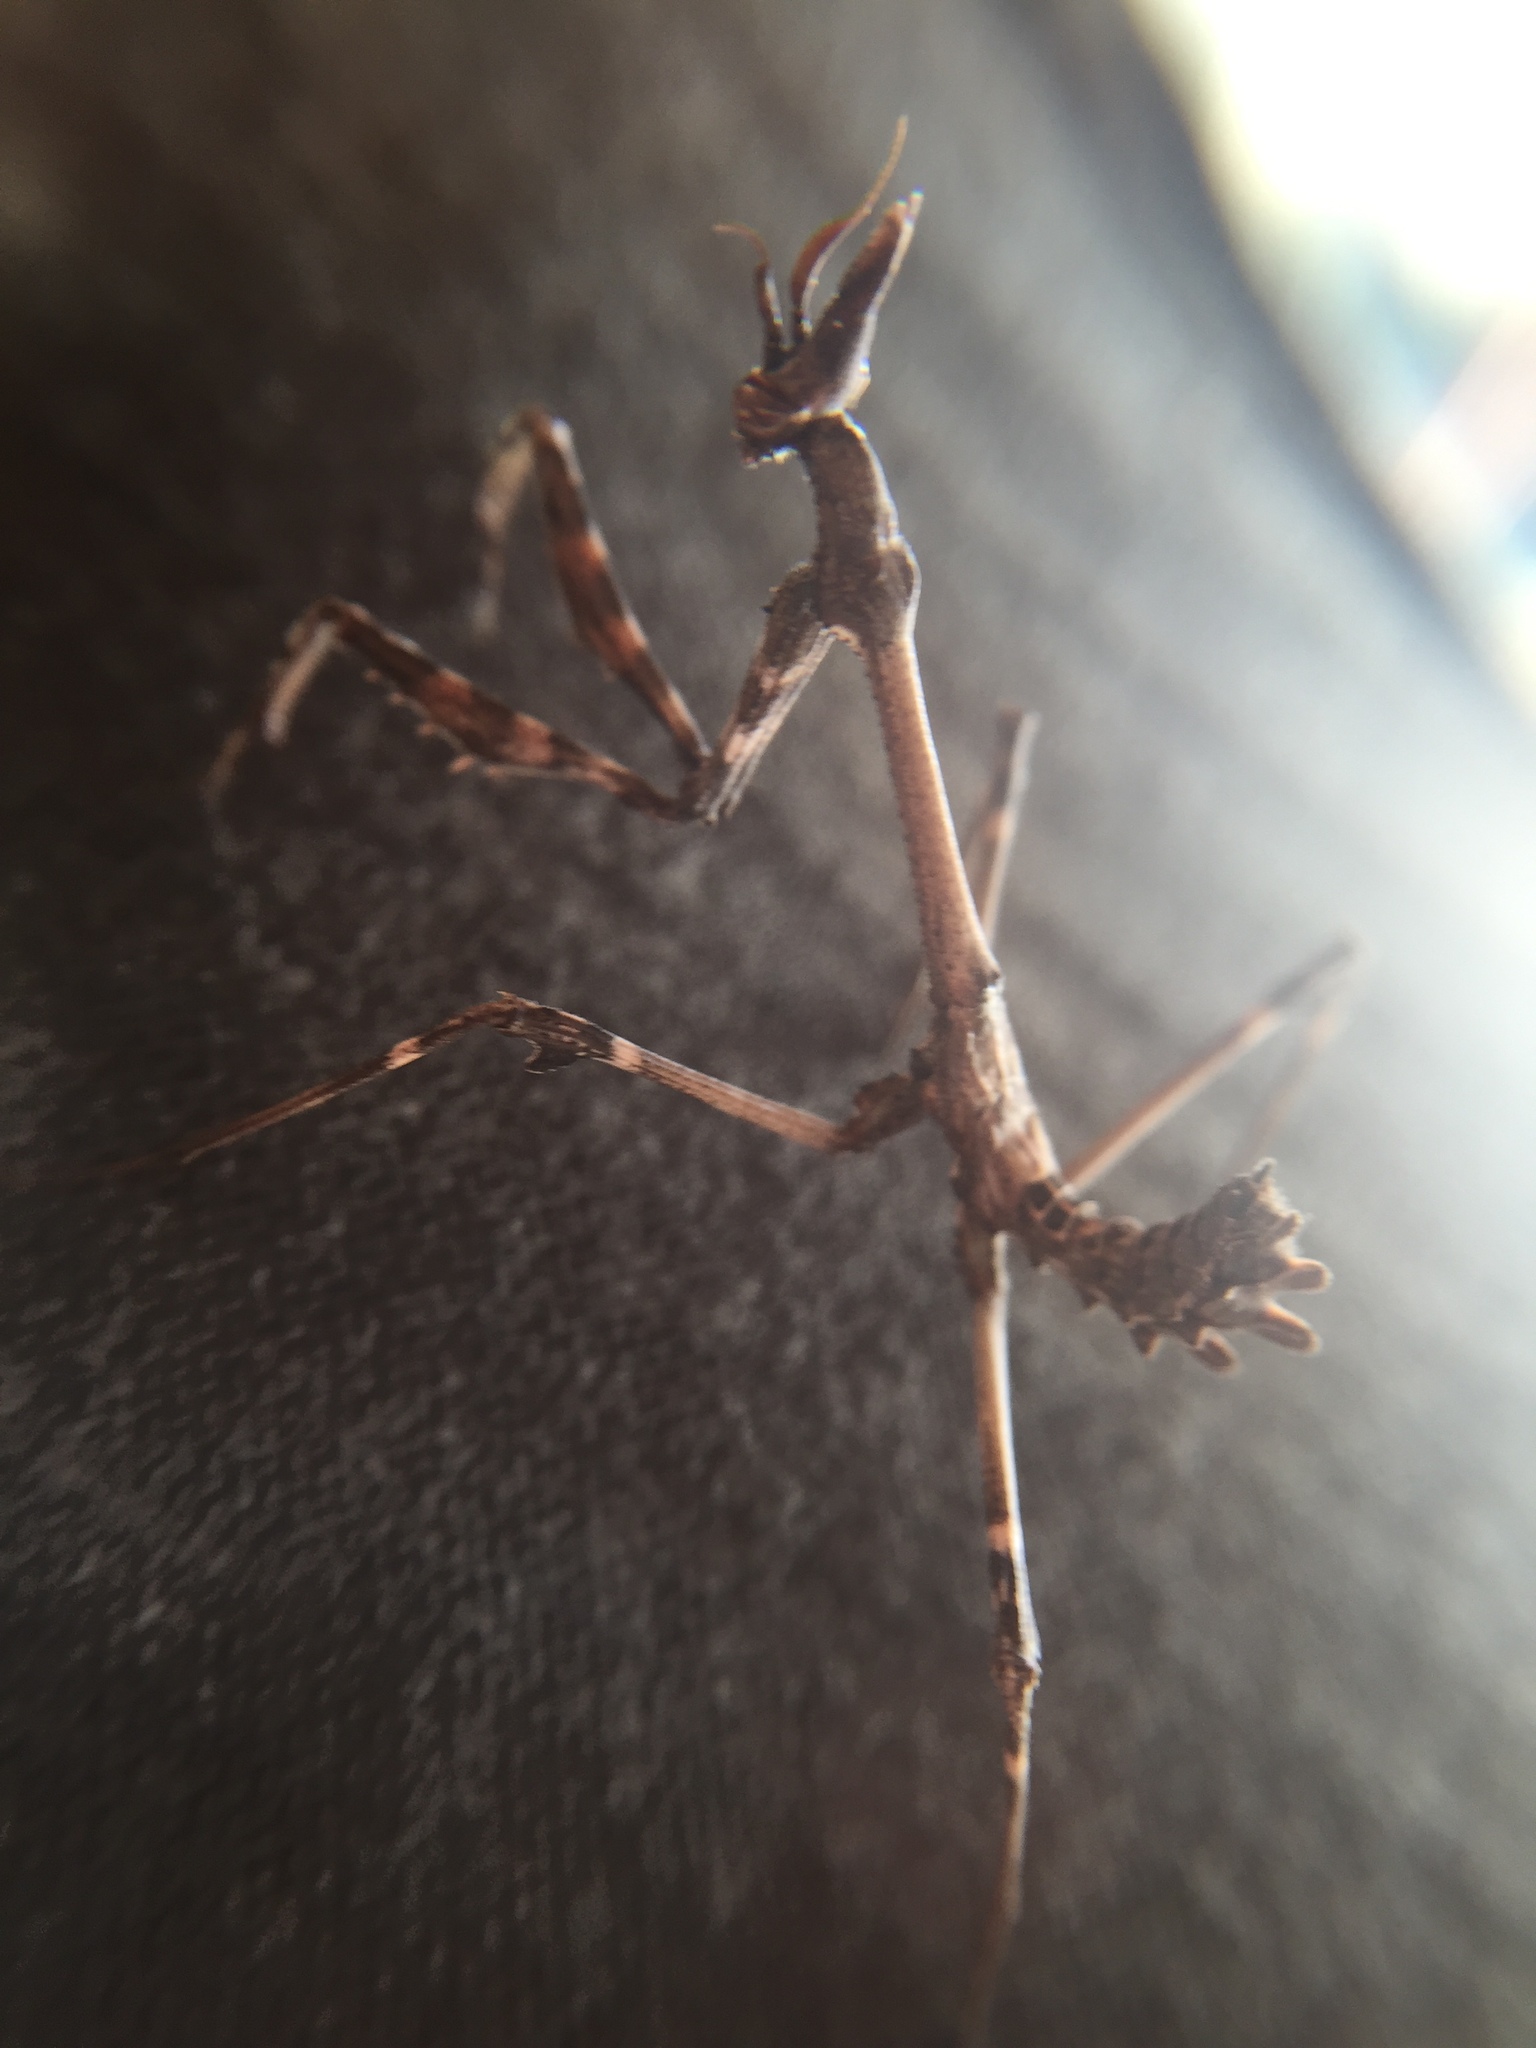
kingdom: Animalia
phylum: Arthropoda
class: Insecta
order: Mantodea
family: Empusidae
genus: Empusa
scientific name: Empusa fasciata
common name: Devil's mare
